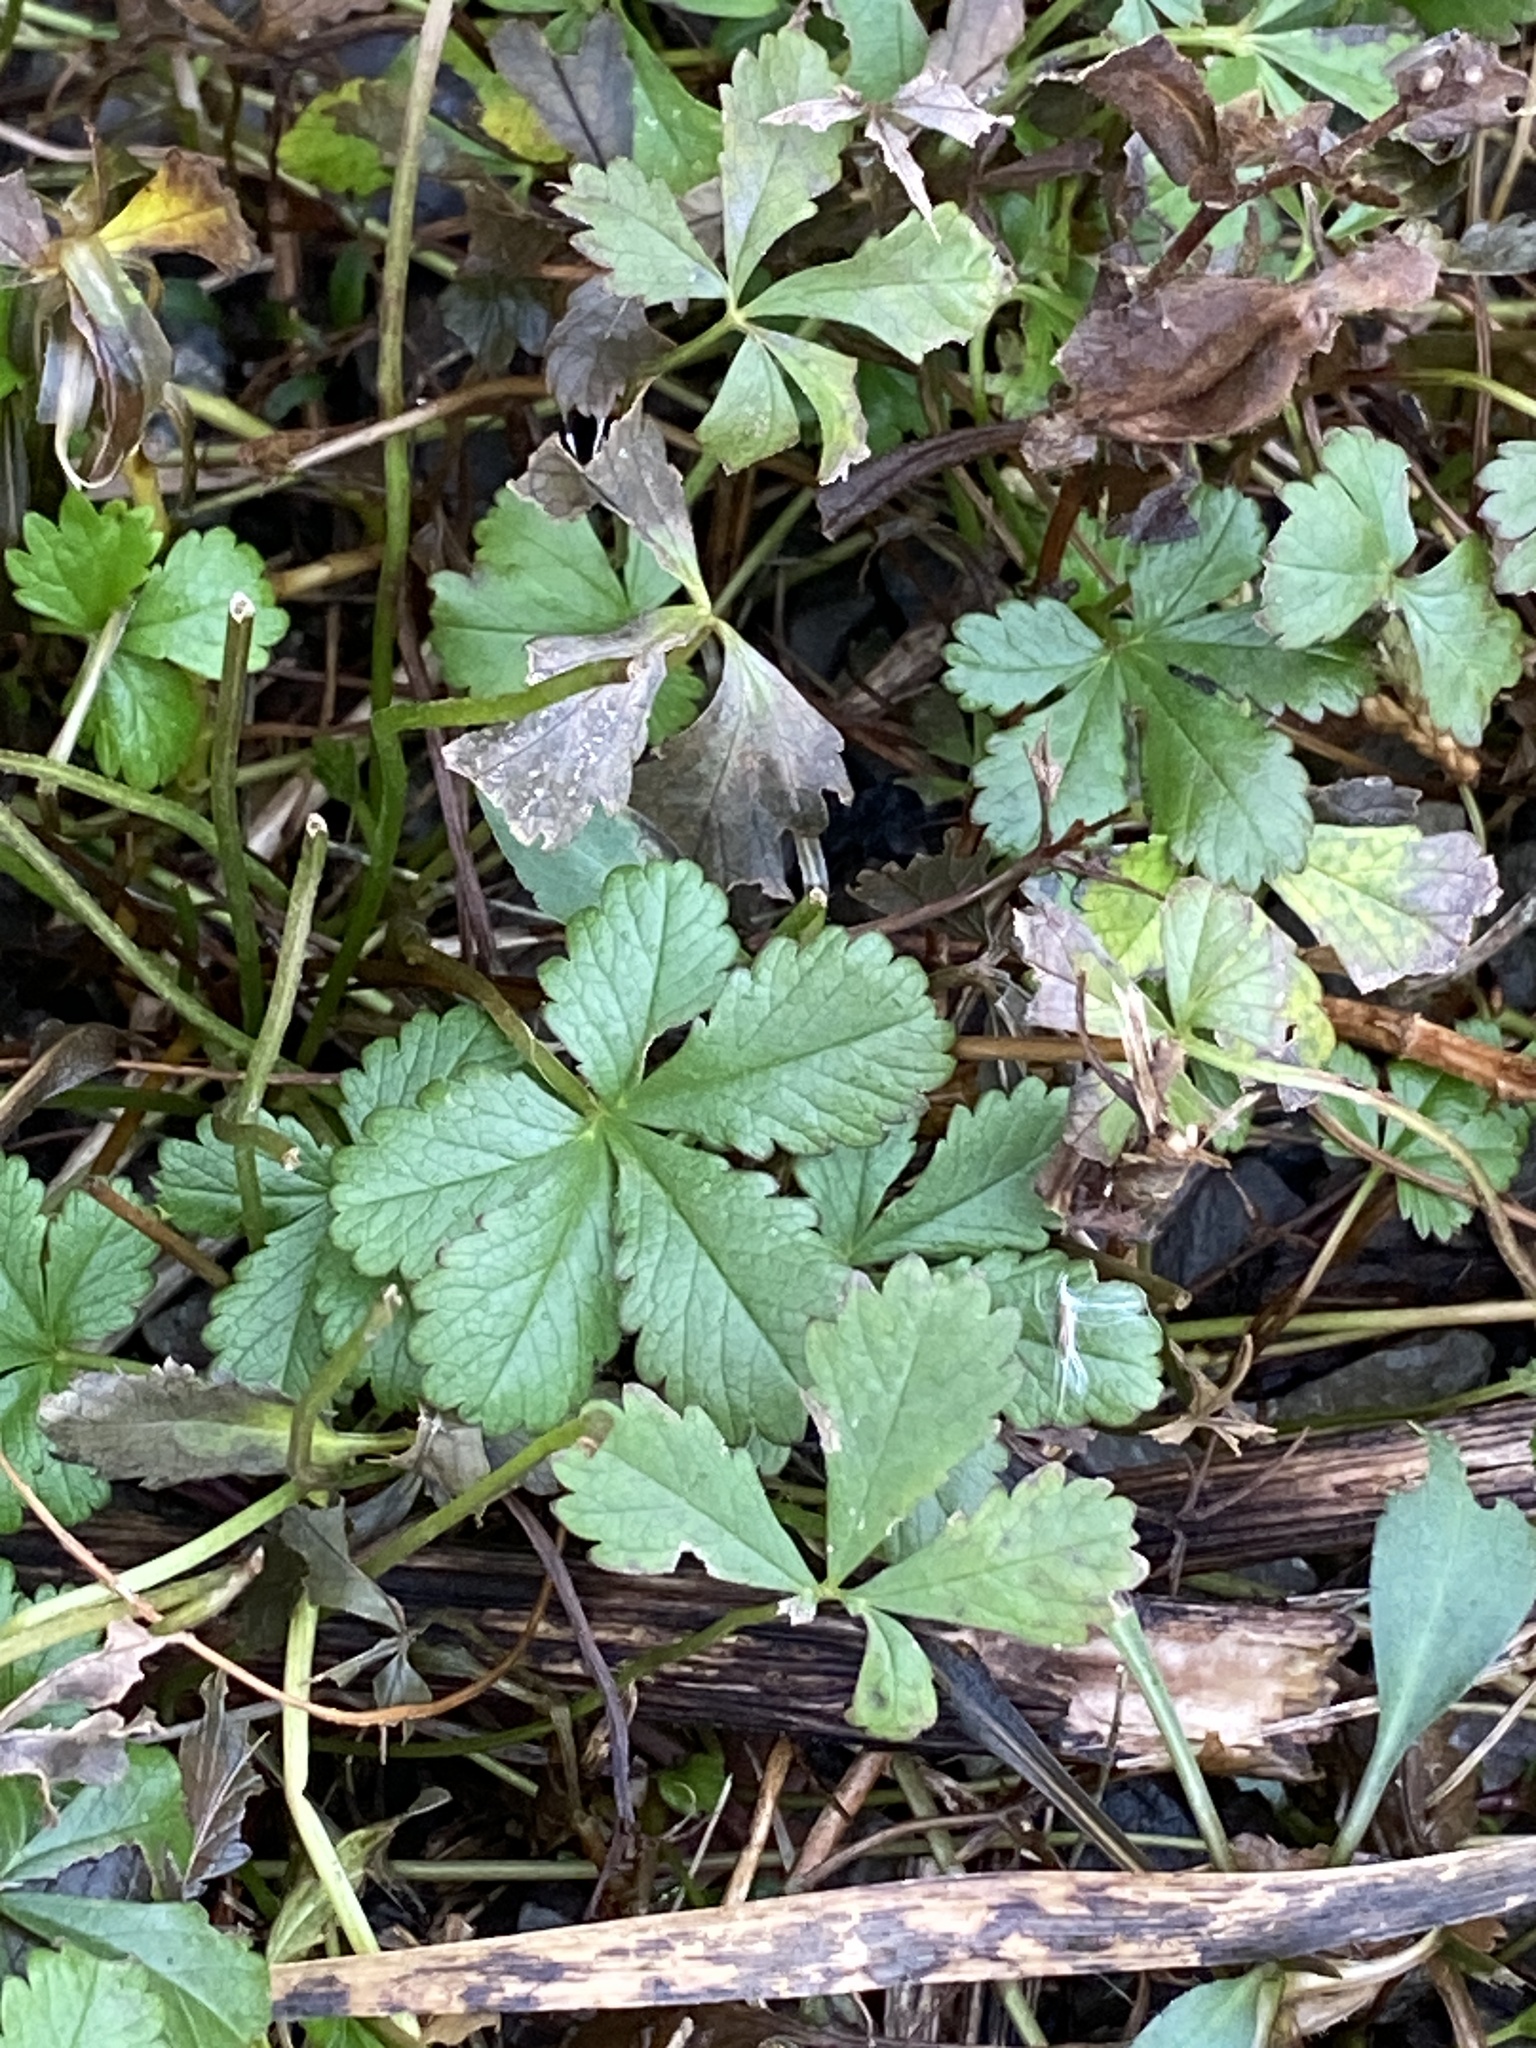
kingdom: Plantae
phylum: Tracheophyta
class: Magnoliopsida
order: Rosales
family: Rosaceae
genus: Potentilla
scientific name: Potentilla reptans
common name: Creeping cinquefoil
